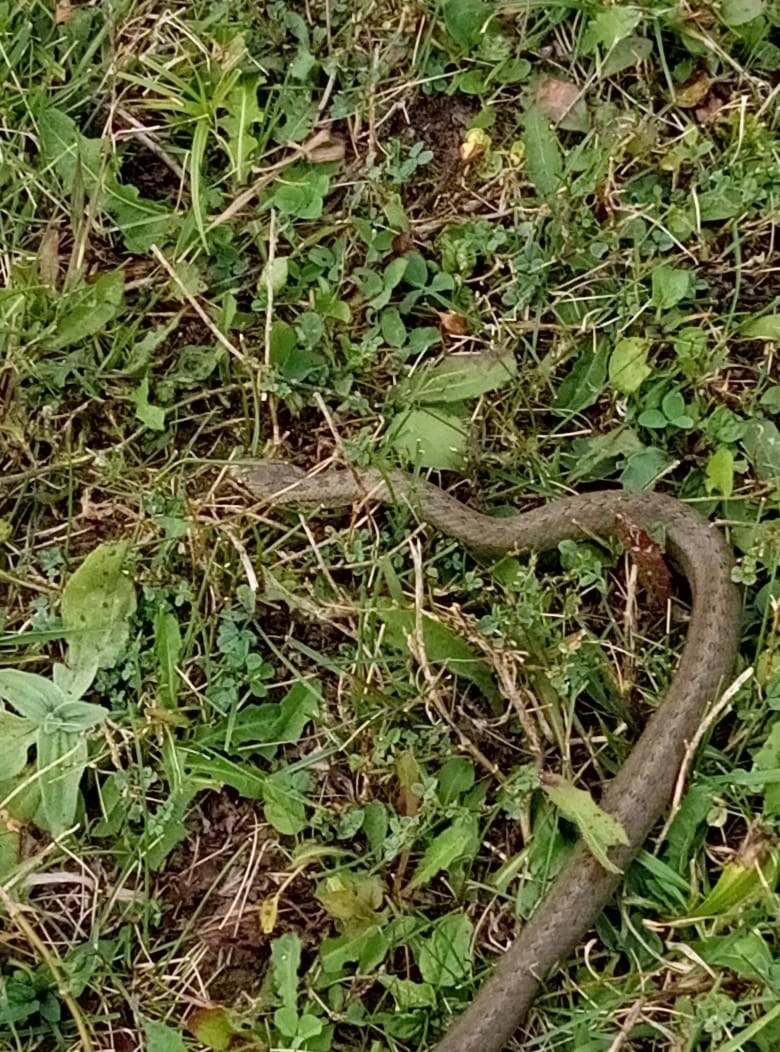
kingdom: Animalia
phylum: Chordata
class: Squamata
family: Colubridae
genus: Coronella
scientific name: Coronella austriaca
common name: Smooth snake
